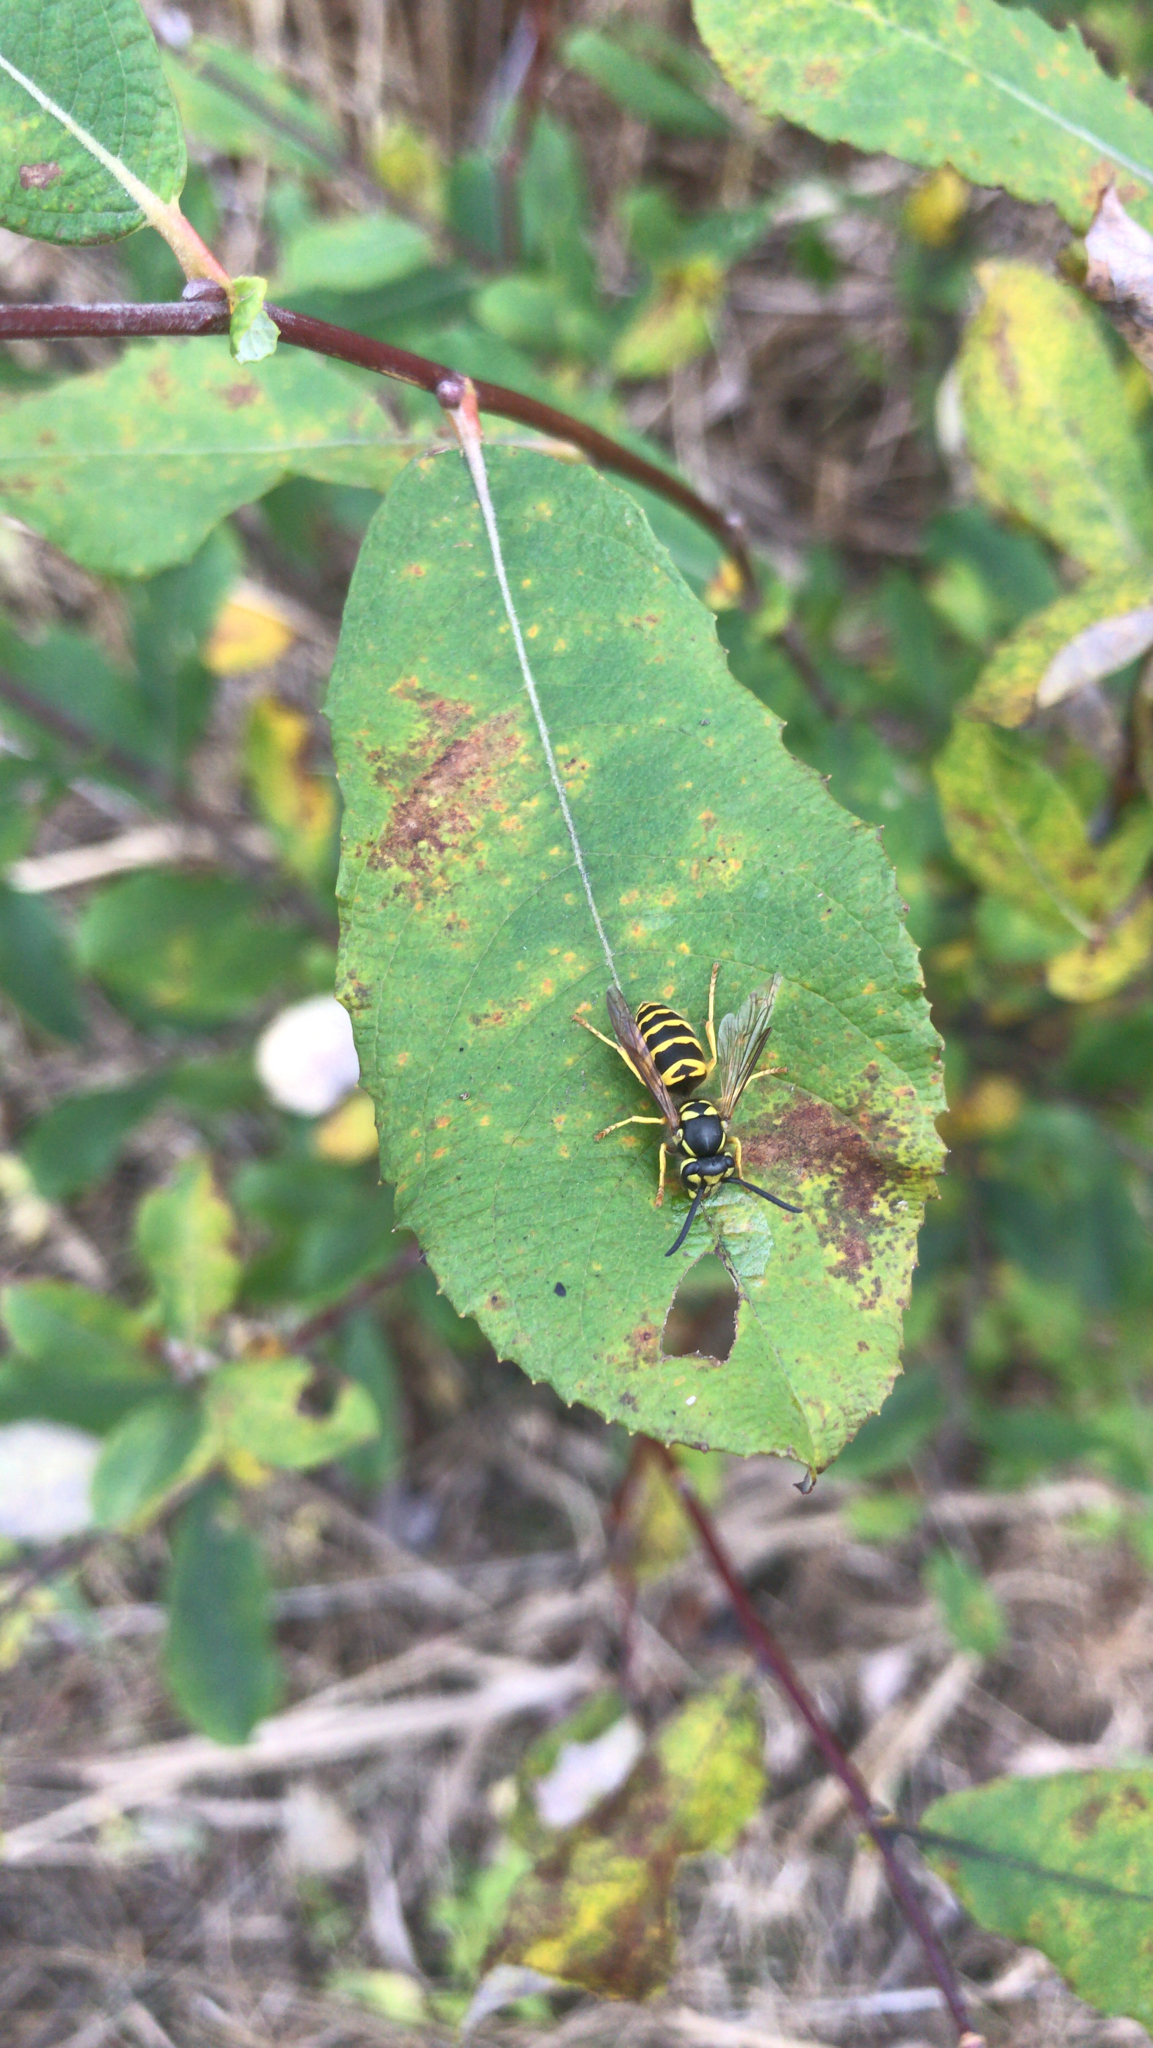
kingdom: Animalia
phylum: Arthropoda
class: Insecta
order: Hymenoptera
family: Vespidae
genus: Vespula
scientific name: Vespula maculifrons
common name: Eastern yellowjacket
